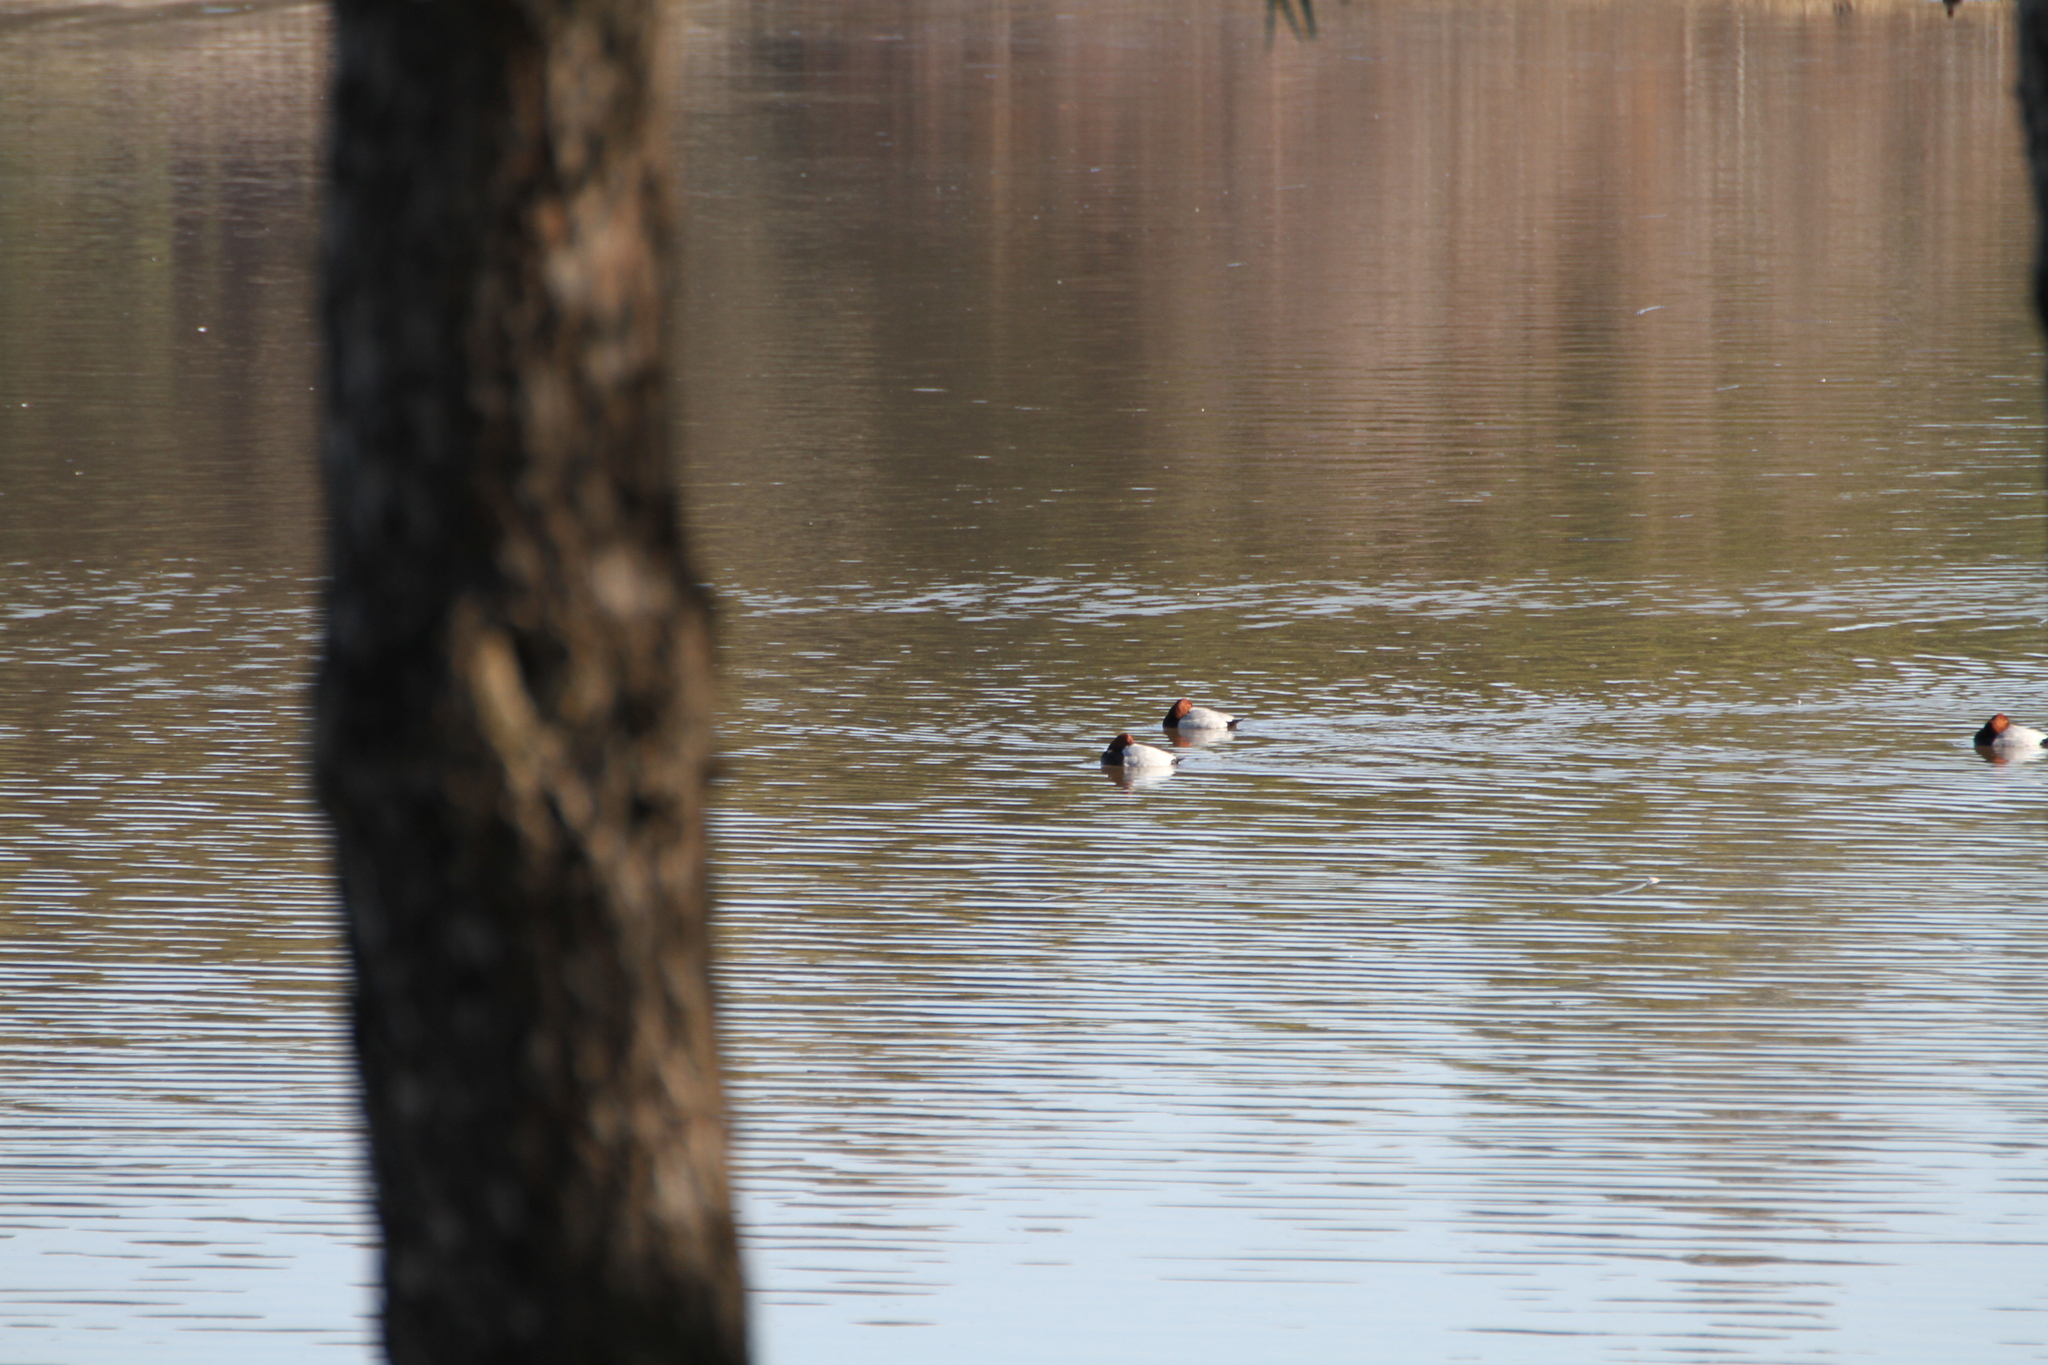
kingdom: Animalia
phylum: Chordata
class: Aves
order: Anseriformes
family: Anatidae
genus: Aythya
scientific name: Aythya ferina
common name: Common pochard
